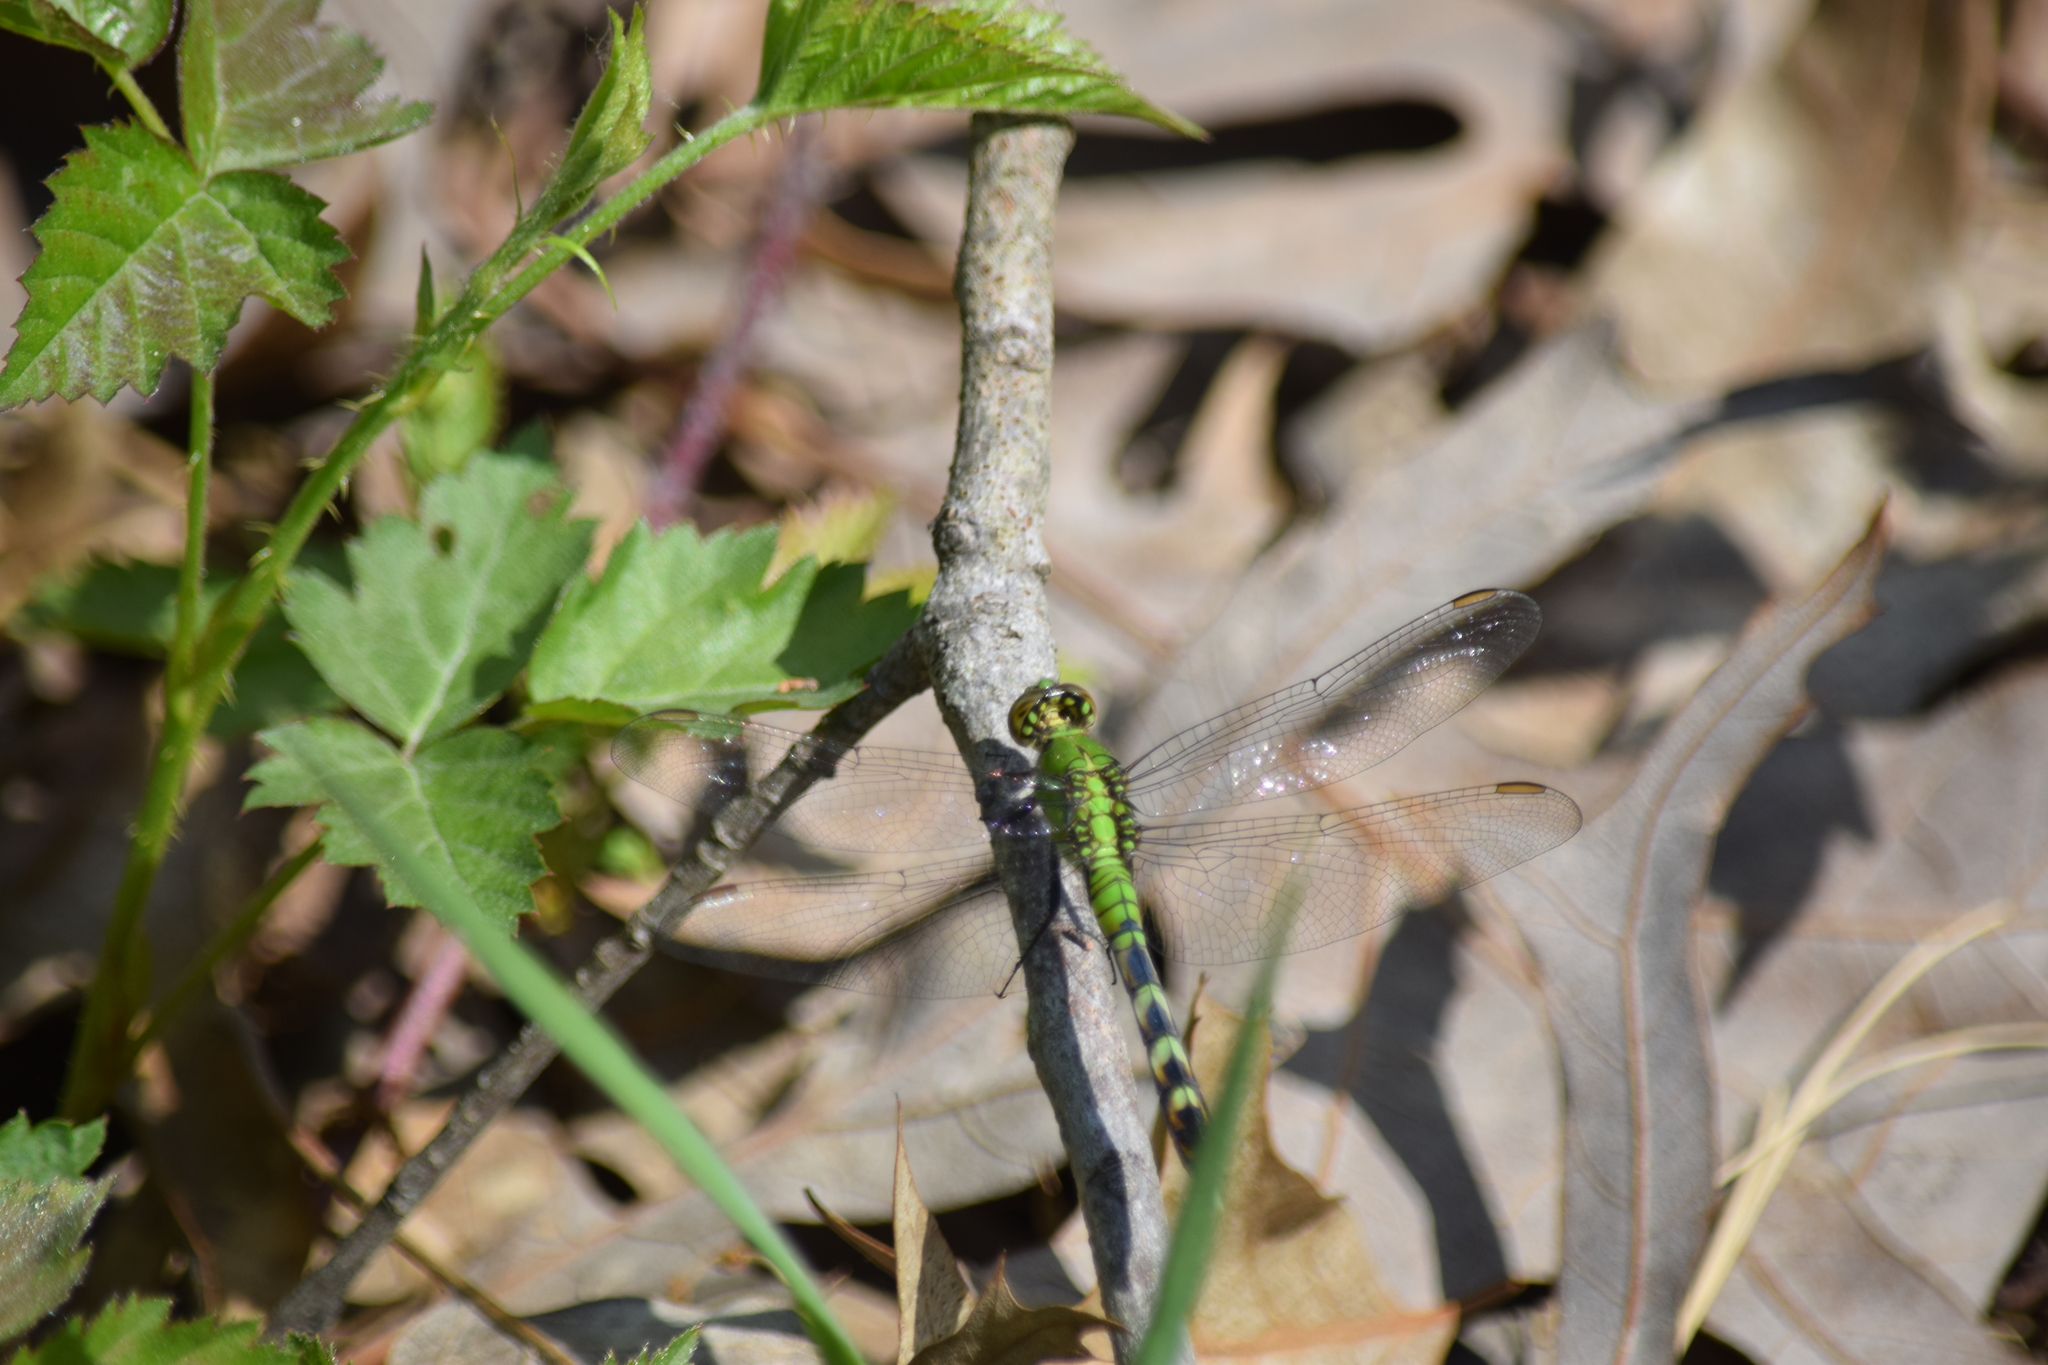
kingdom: Animalia
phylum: Arthropoda
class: Insecta
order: Odonata
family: Libellulidae
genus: Erythemis
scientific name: Erythemis simplicicollis
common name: Eastern pondhawk
